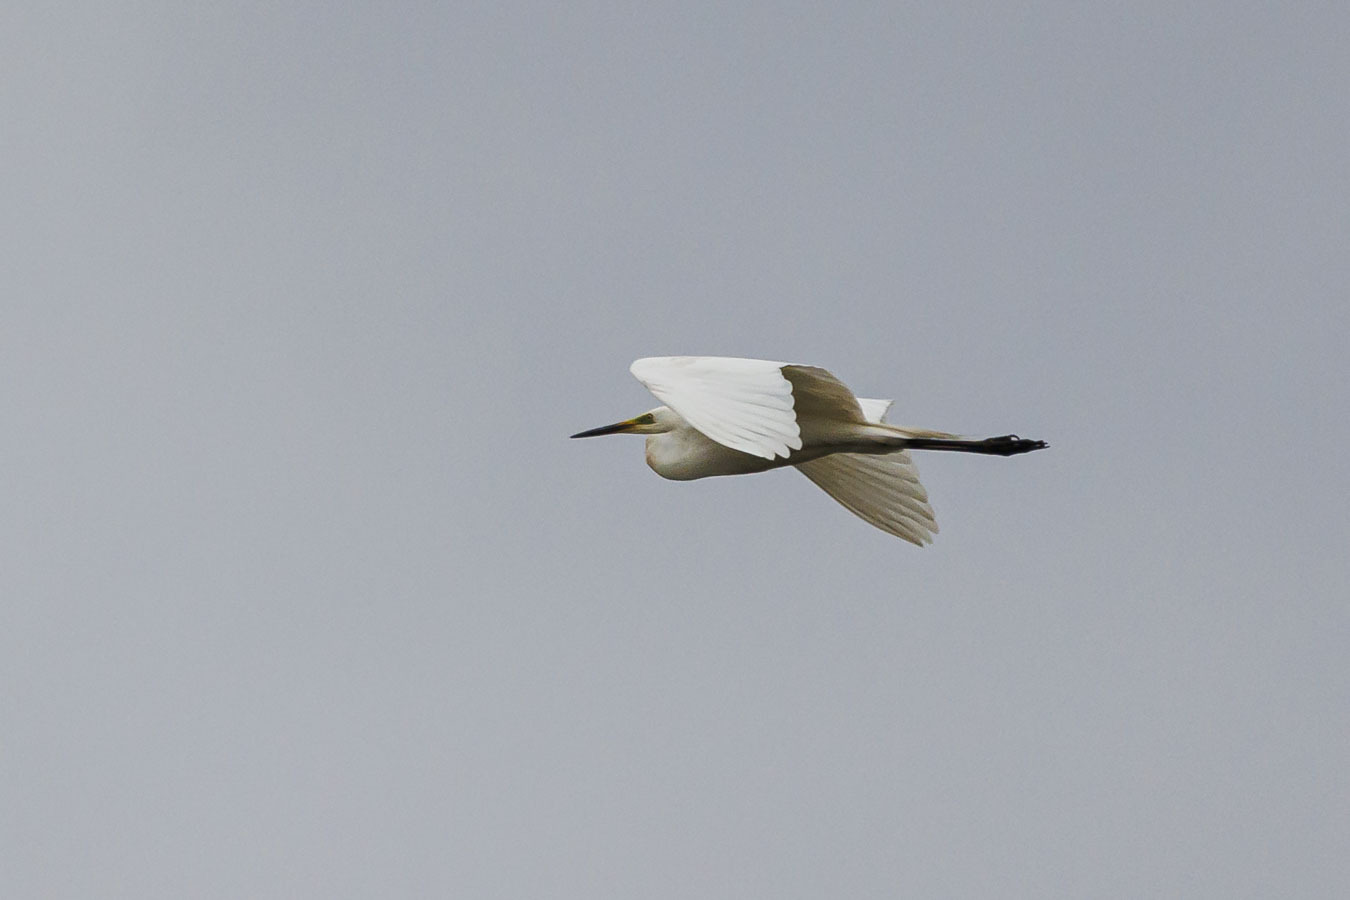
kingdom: Animalia
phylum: Chordata
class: Aves
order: Pelecaniformes
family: Ardeidae
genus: Ardea
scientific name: Ardea alba
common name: Great egret
